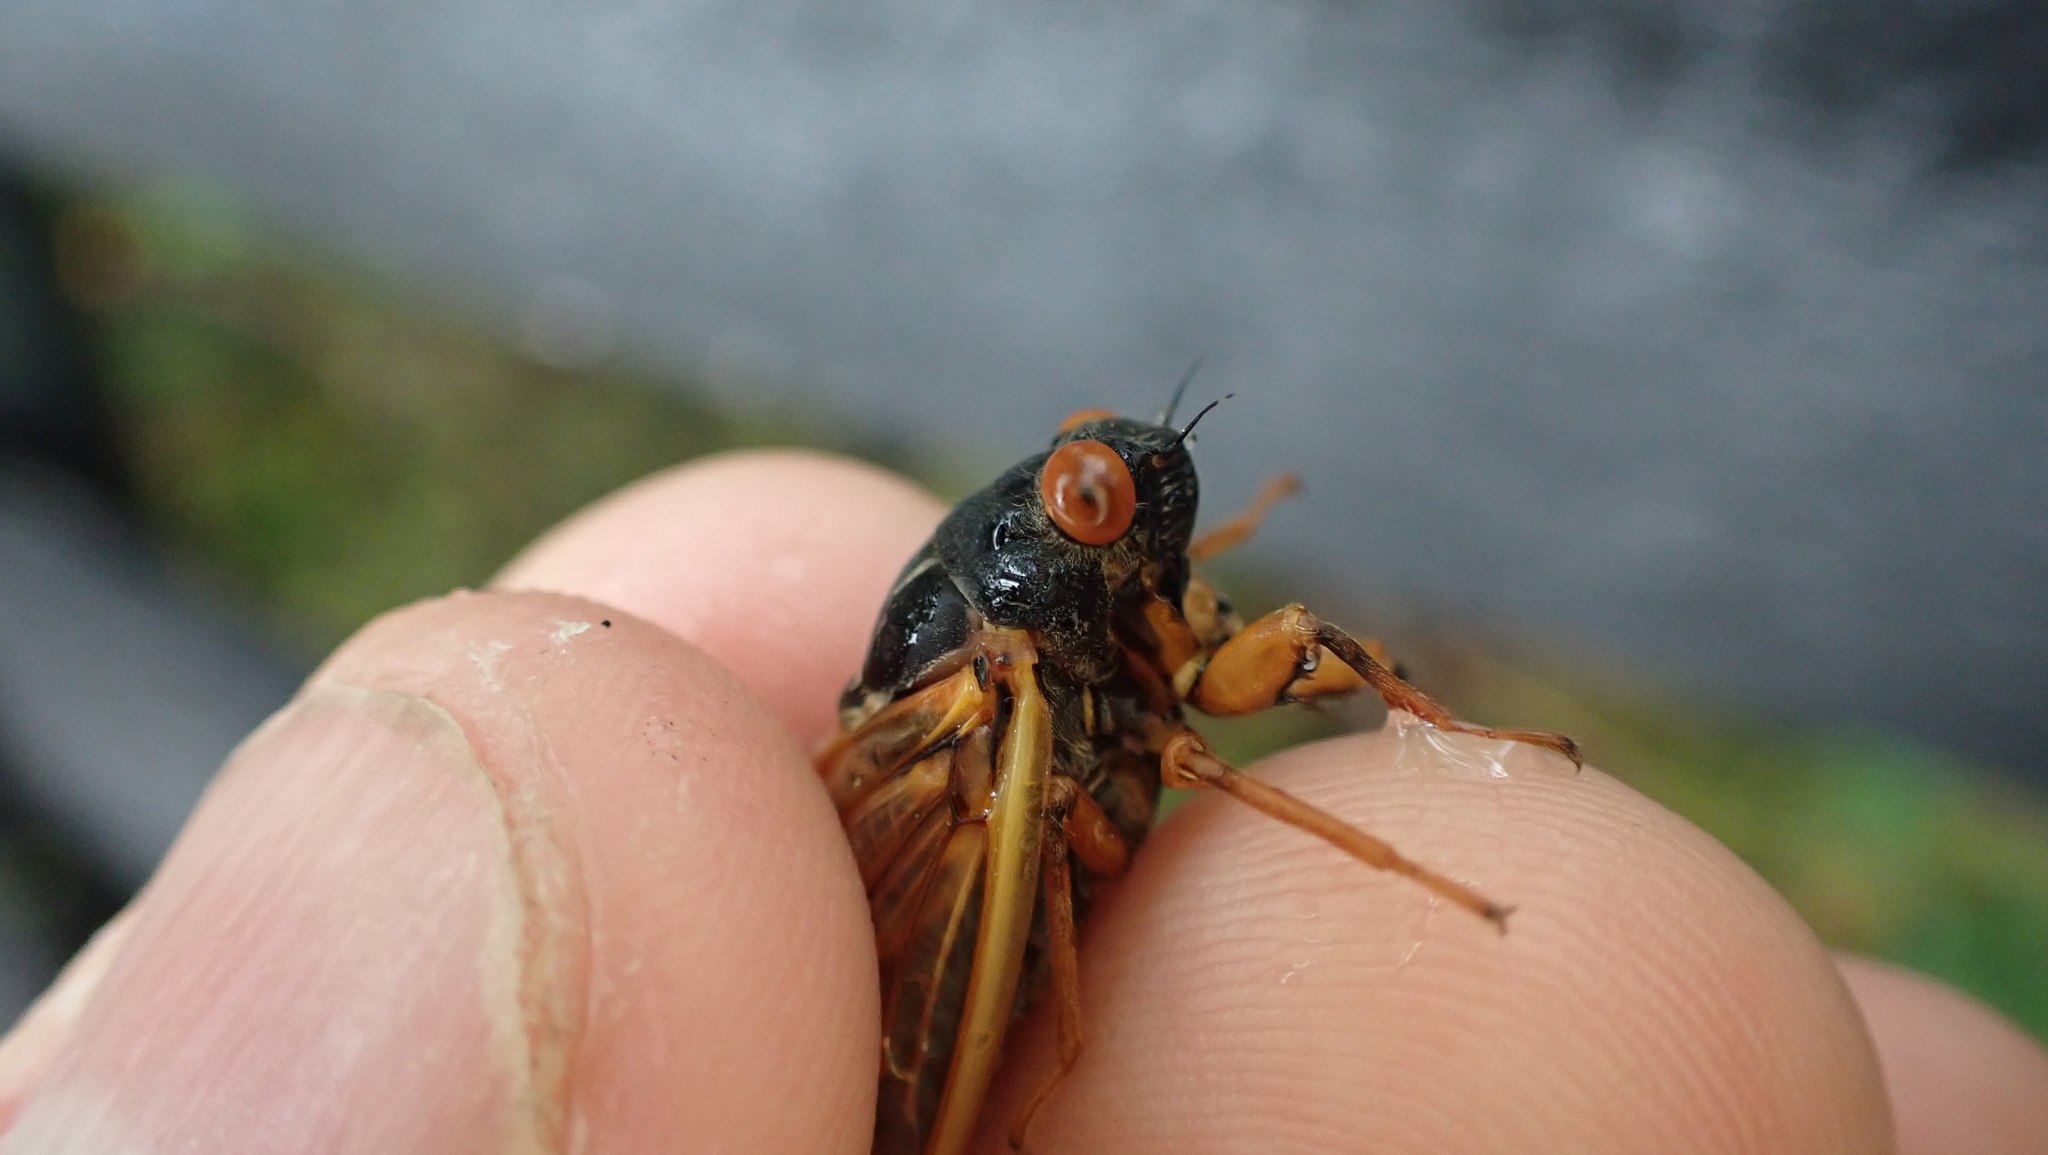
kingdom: Animalia
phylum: Arthropoda
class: Insecta
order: Hemiptera
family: Cicadidae
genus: Magicicada
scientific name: Magicicada cassini
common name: Cassin's 17-year cicada
